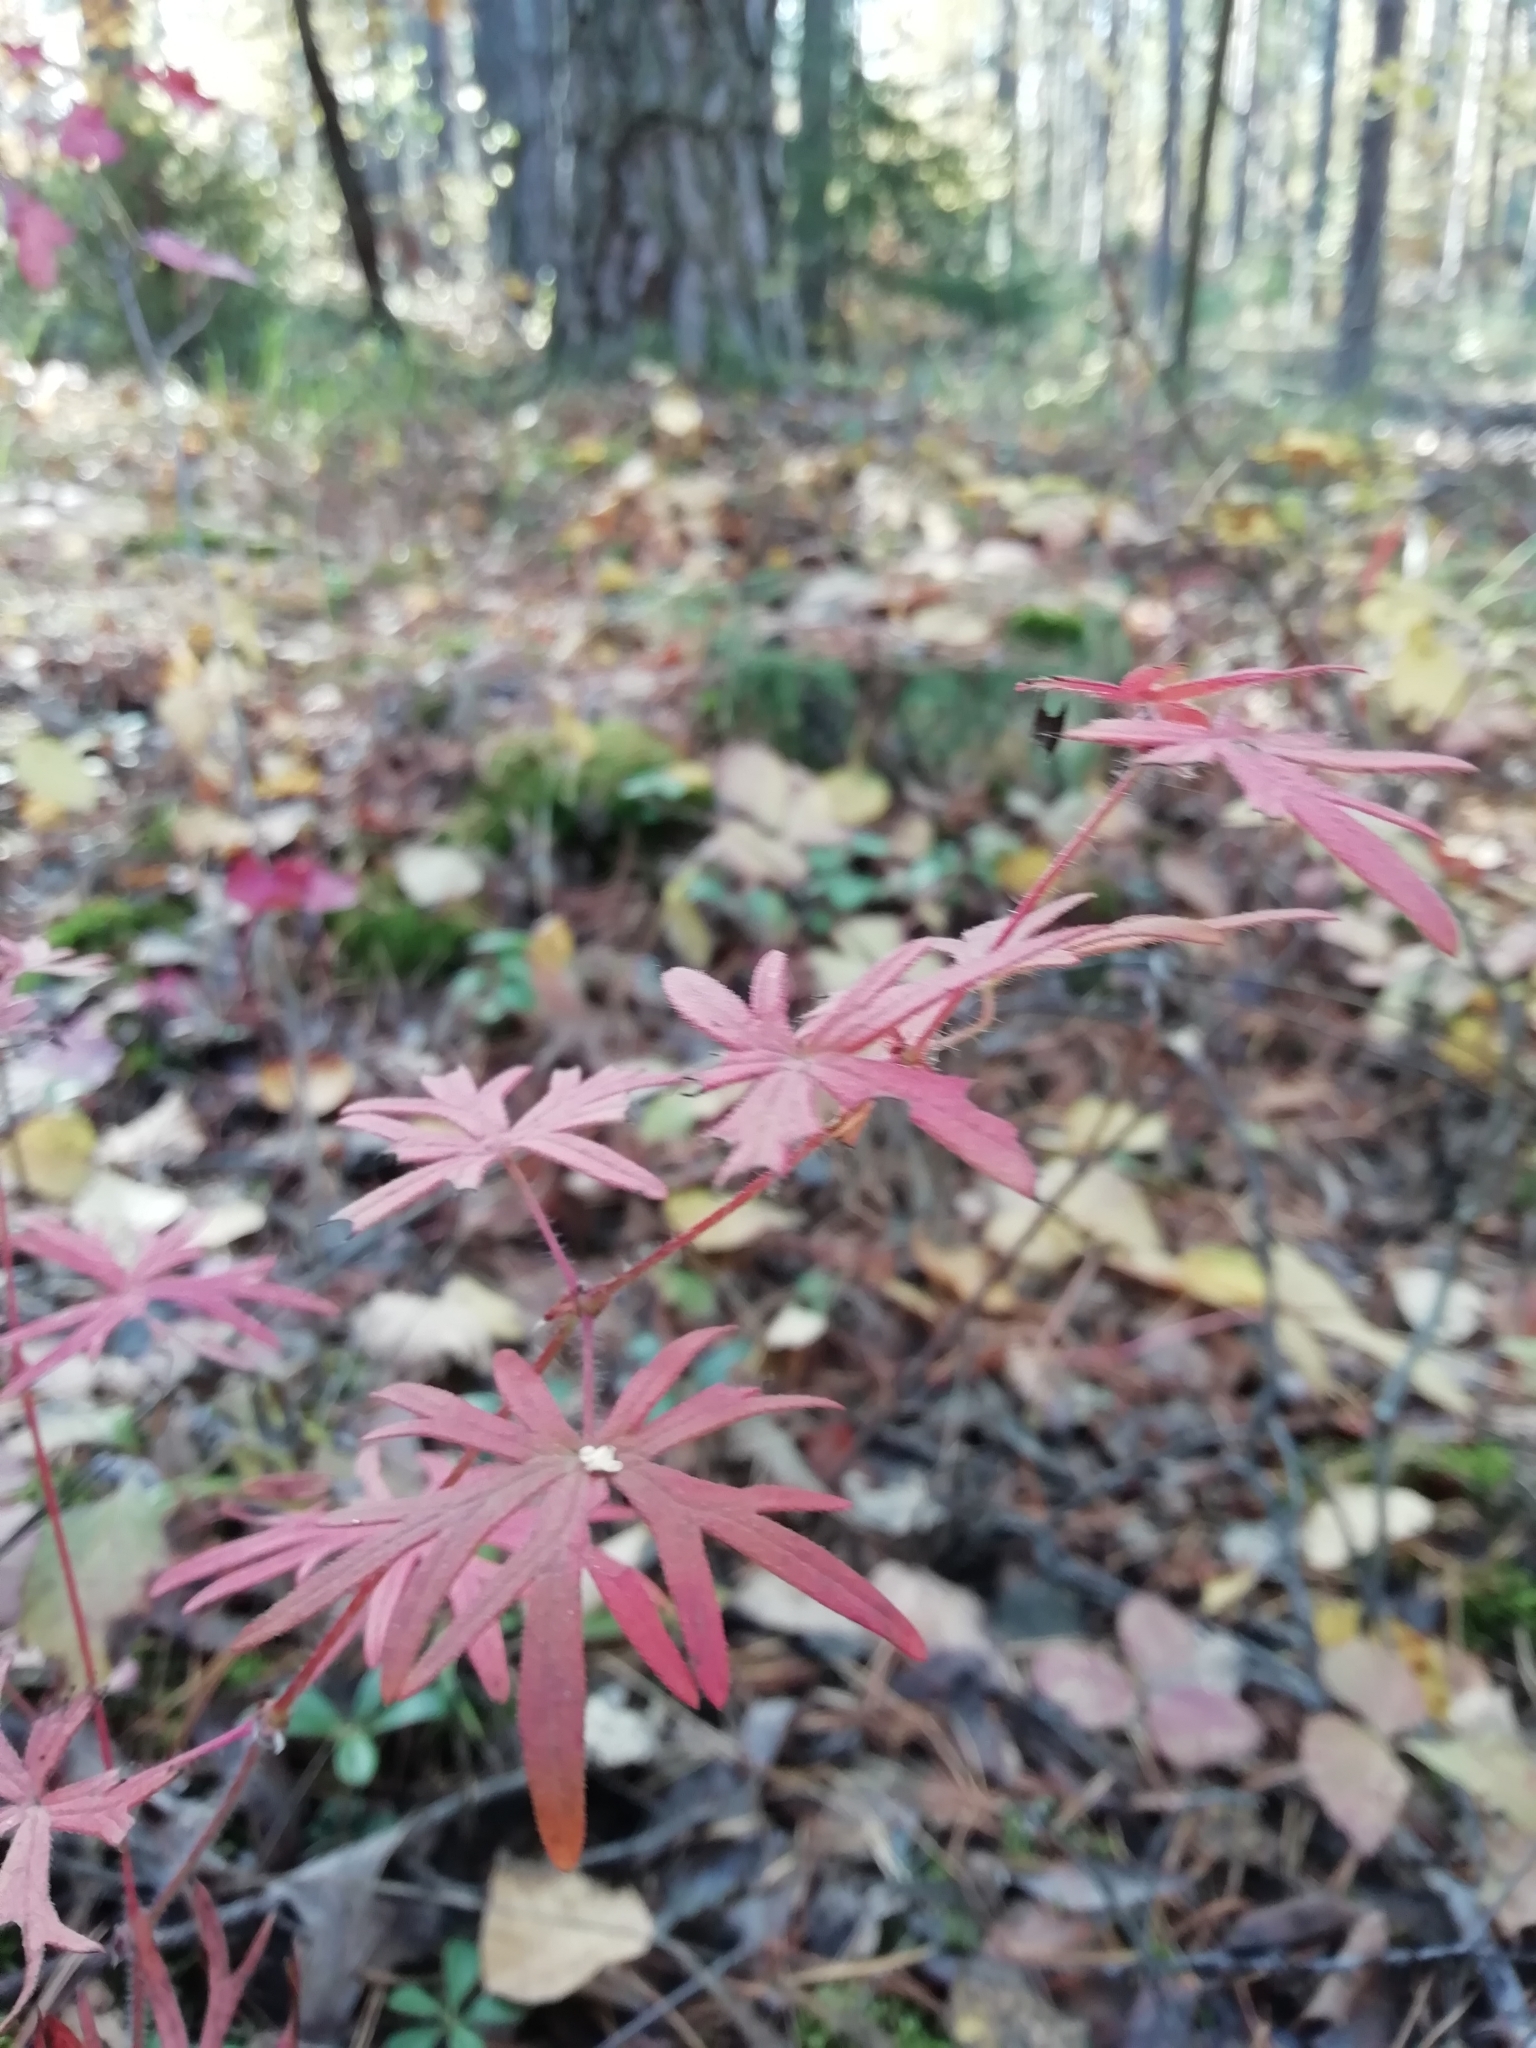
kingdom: Plantae
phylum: Tracheophyta
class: Magnoliopsida
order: Geraniales
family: Geraniaceae
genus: Geranium
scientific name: Geranium sanguineum
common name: Bloody crane's-bill
